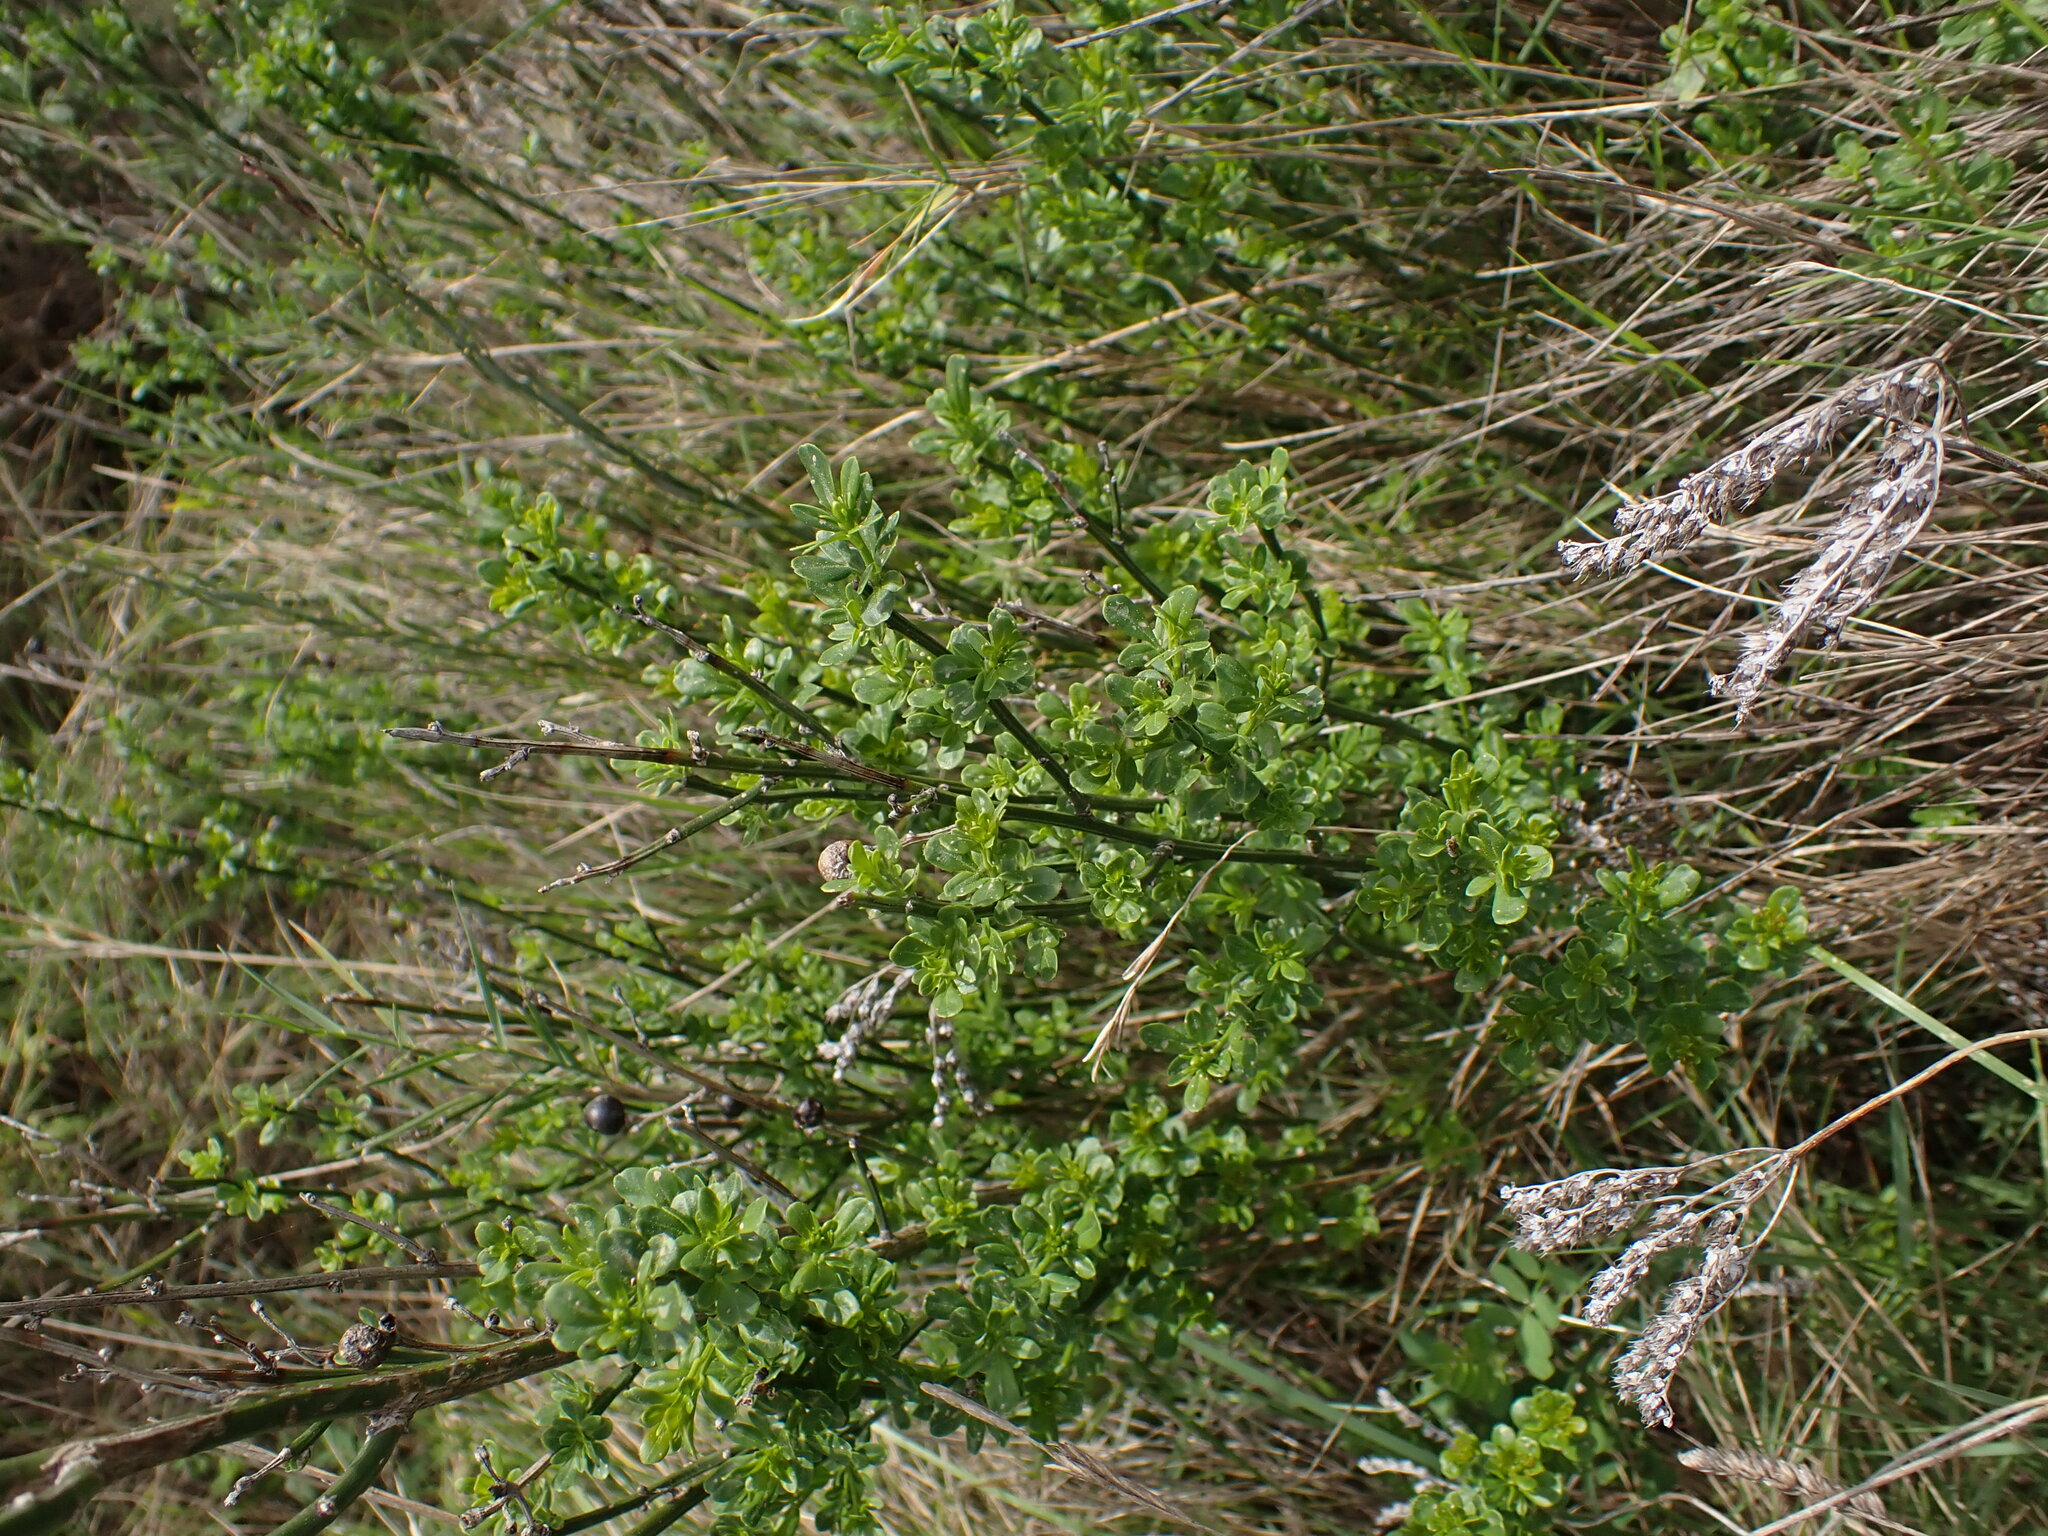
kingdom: Plantae
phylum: Tracheophyta
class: Magnoliopsida
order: Lamiales
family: Oleaceae
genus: Chrysojasminum
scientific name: Chrysojasminum fruticans
